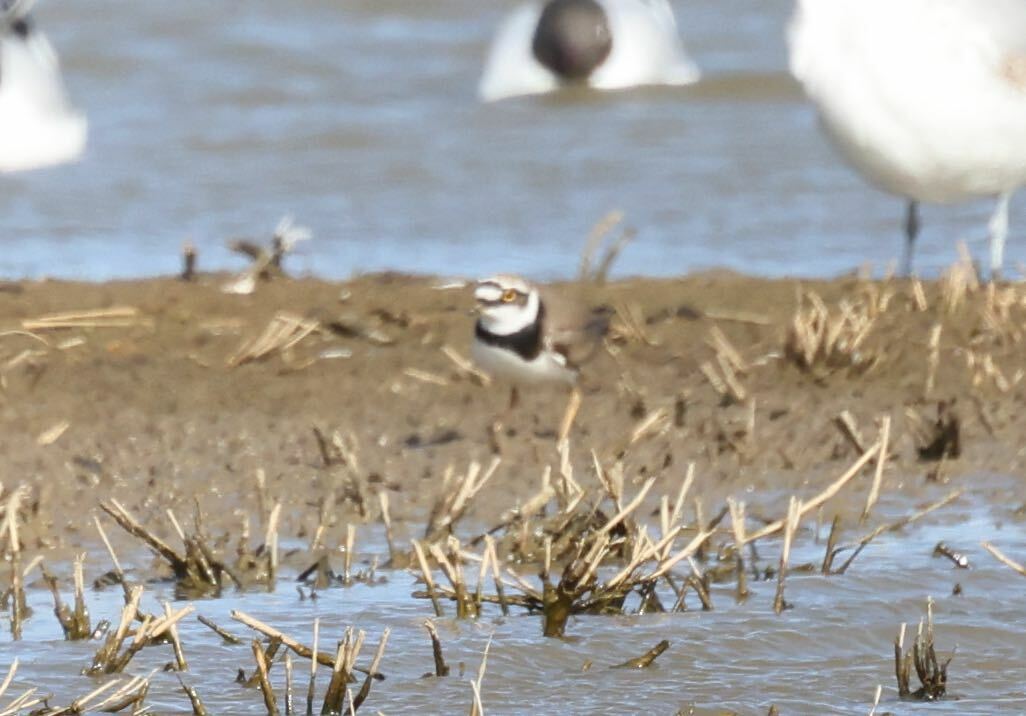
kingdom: Animalia
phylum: Chordata
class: Aves
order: Charadriiformes
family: Charadriidae
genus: Charadrius
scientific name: Charadrius dubius
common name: Little ringed plover
